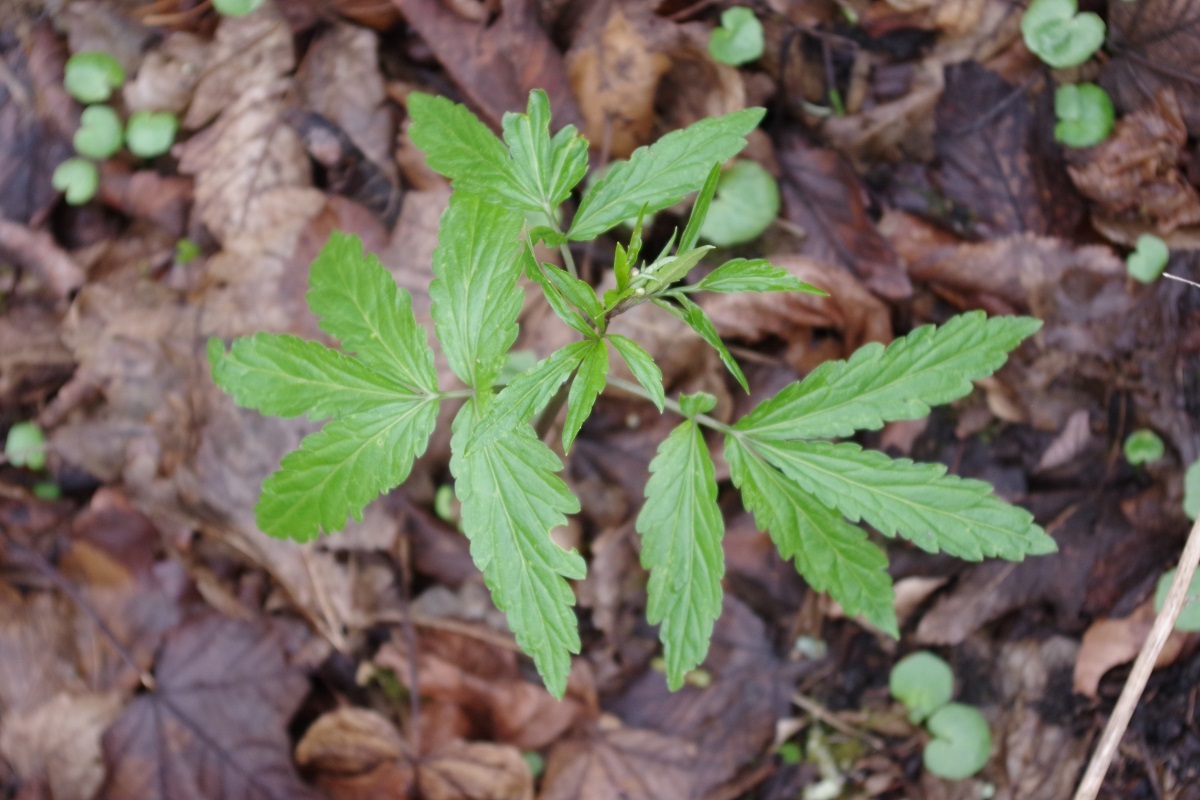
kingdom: Plantae
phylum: Tracheophyta
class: Magnoliopsida
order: Brassicales
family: Brassicaceae
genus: Cardamine
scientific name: Cardamine bulbifera
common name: Coralroot bittercress
